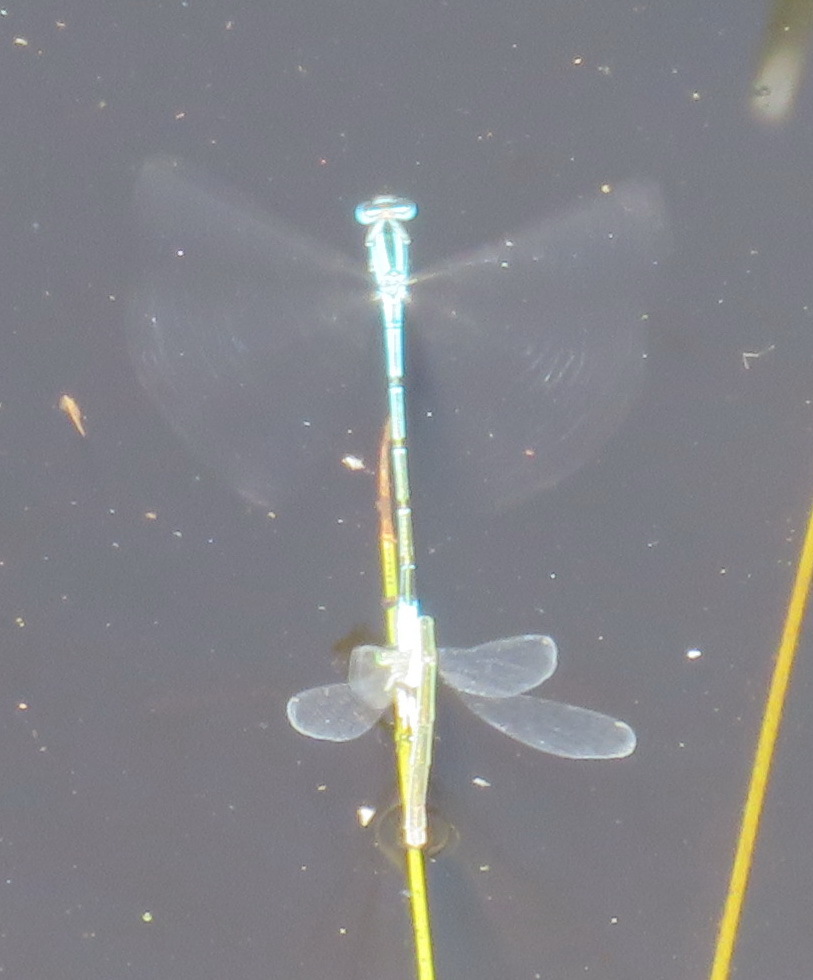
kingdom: Animalia
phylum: Arthropoda
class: Insecta
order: Odonata
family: Coenagrionidae
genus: Africallagma
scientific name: Africallagma glaucum
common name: Swamp bluet
